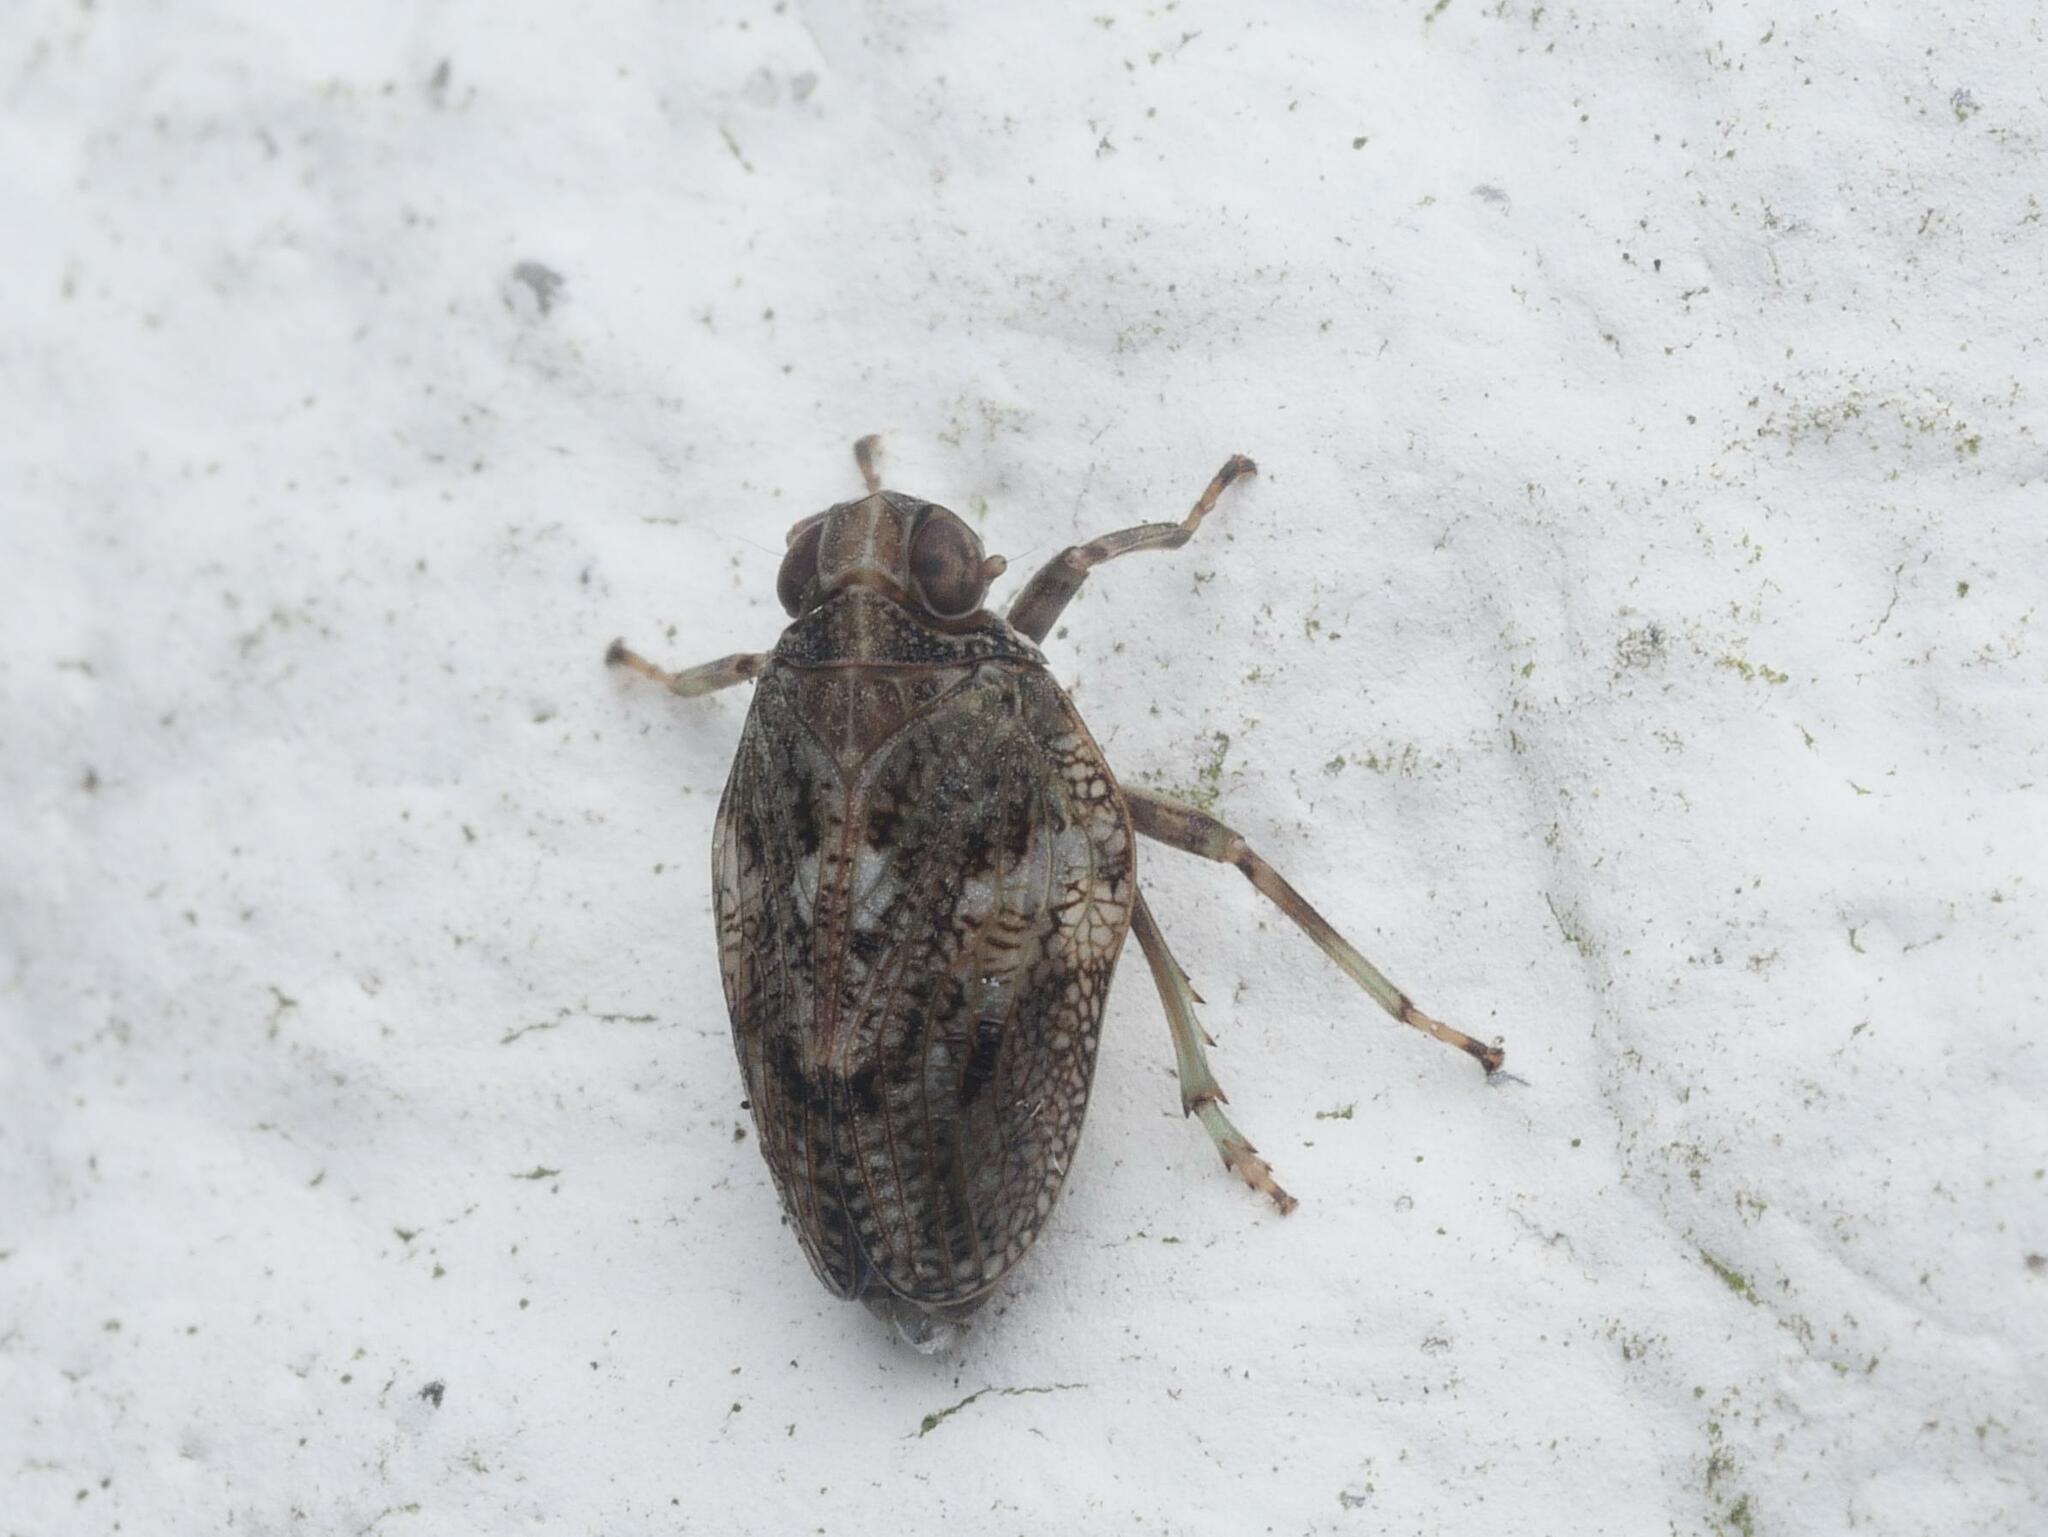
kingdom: Animalia
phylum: Arthropoda
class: Insecta
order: Hemiptera
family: Issidae
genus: Issus
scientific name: Issus coleoptratus
